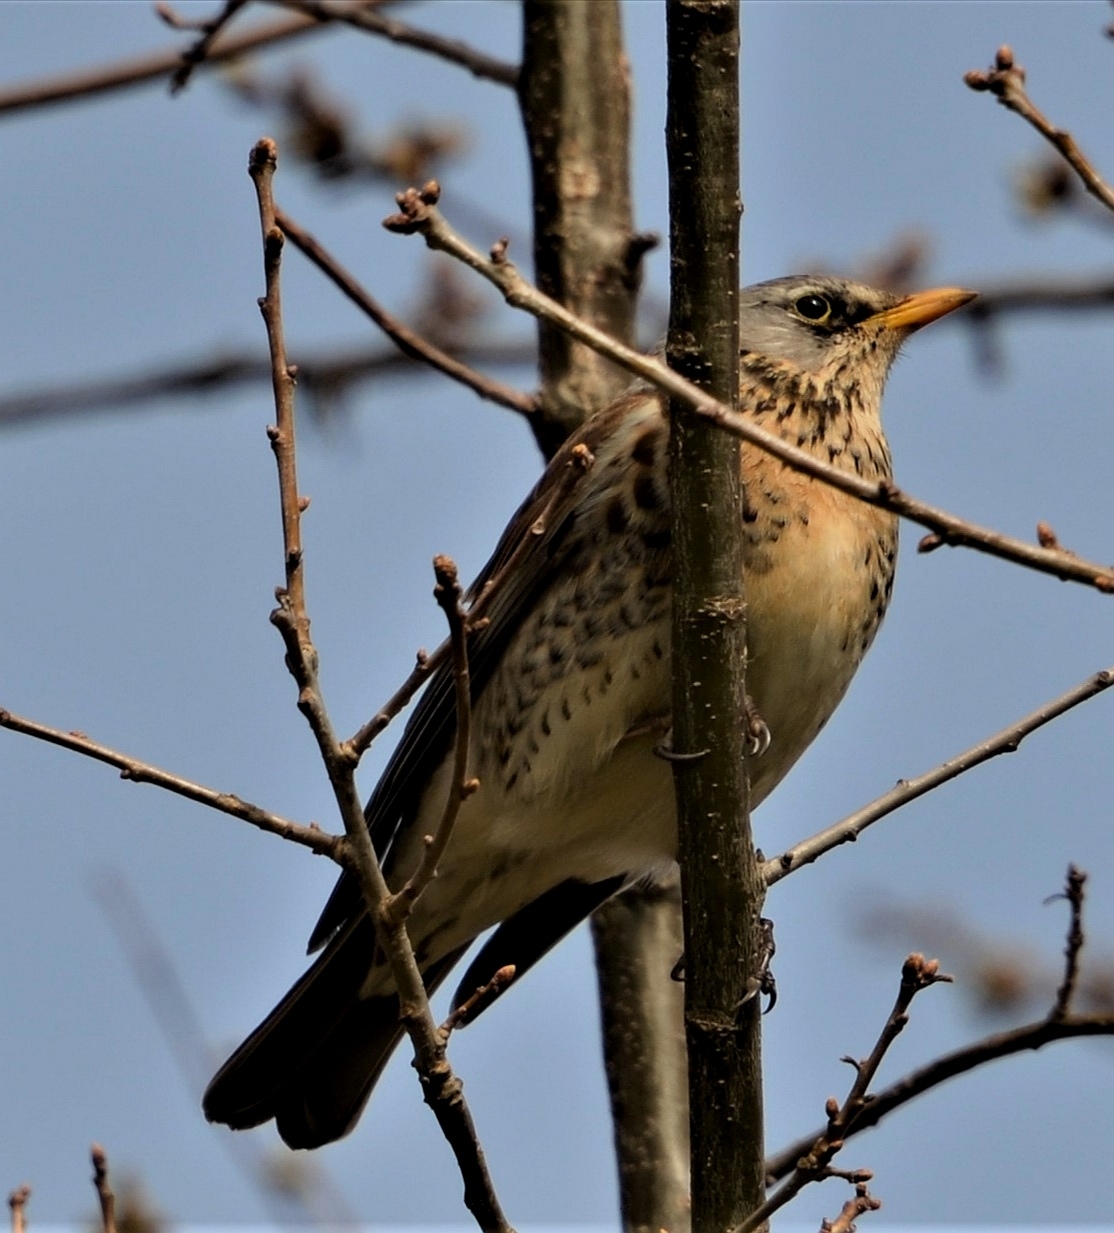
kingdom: Animalia
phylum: Chordata
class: Aves
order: Passeriformes
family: Turdidae
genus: Turdus
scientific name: Turdus pilaris
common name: Fieldfare
